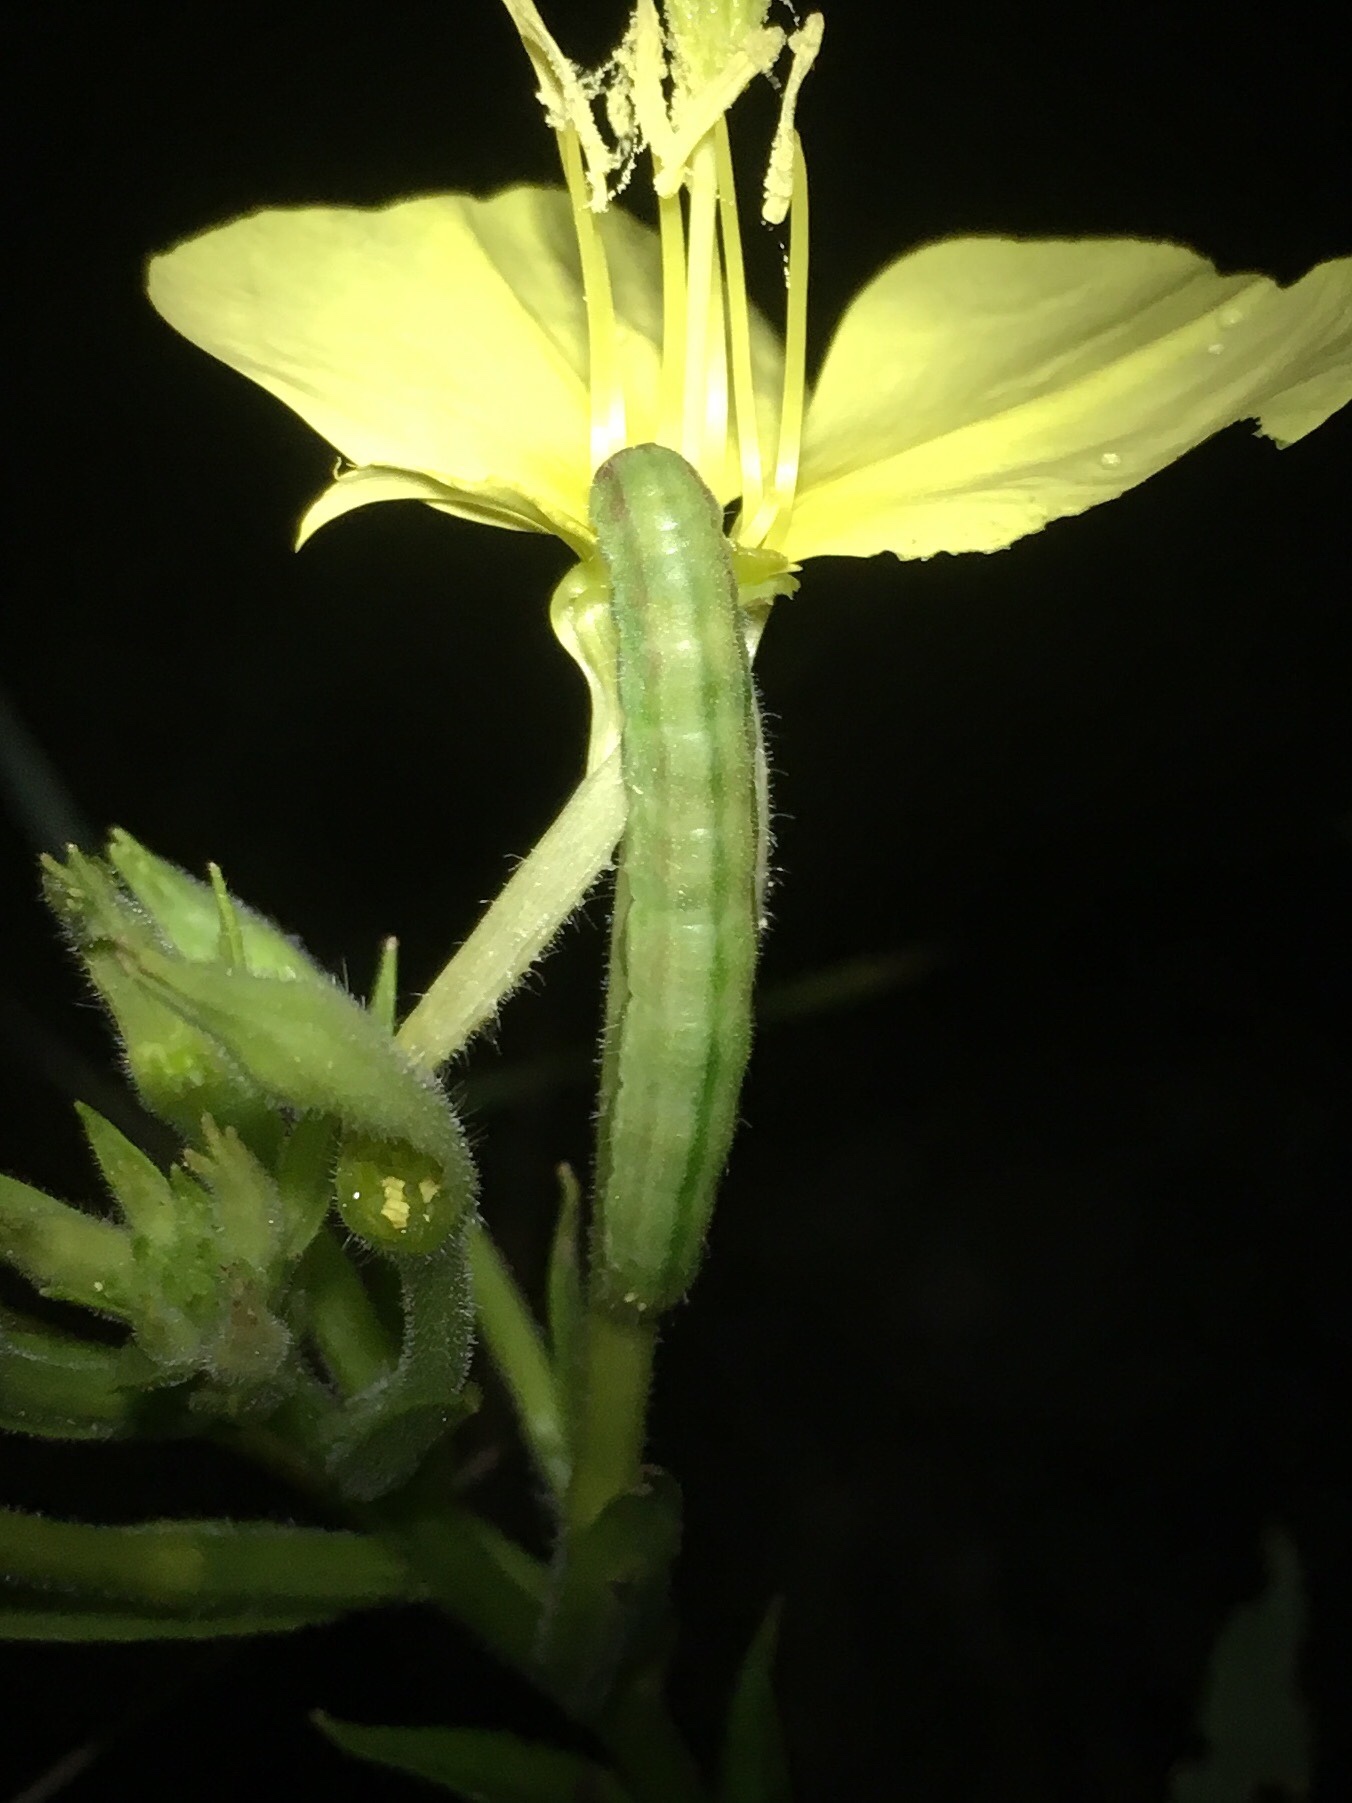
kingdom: Animalia
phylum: Arthropoda
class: Insecta
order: Lepidoptera
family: Noctuidae
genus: Schinia
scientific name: Schinia florida
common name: Primrose moth
